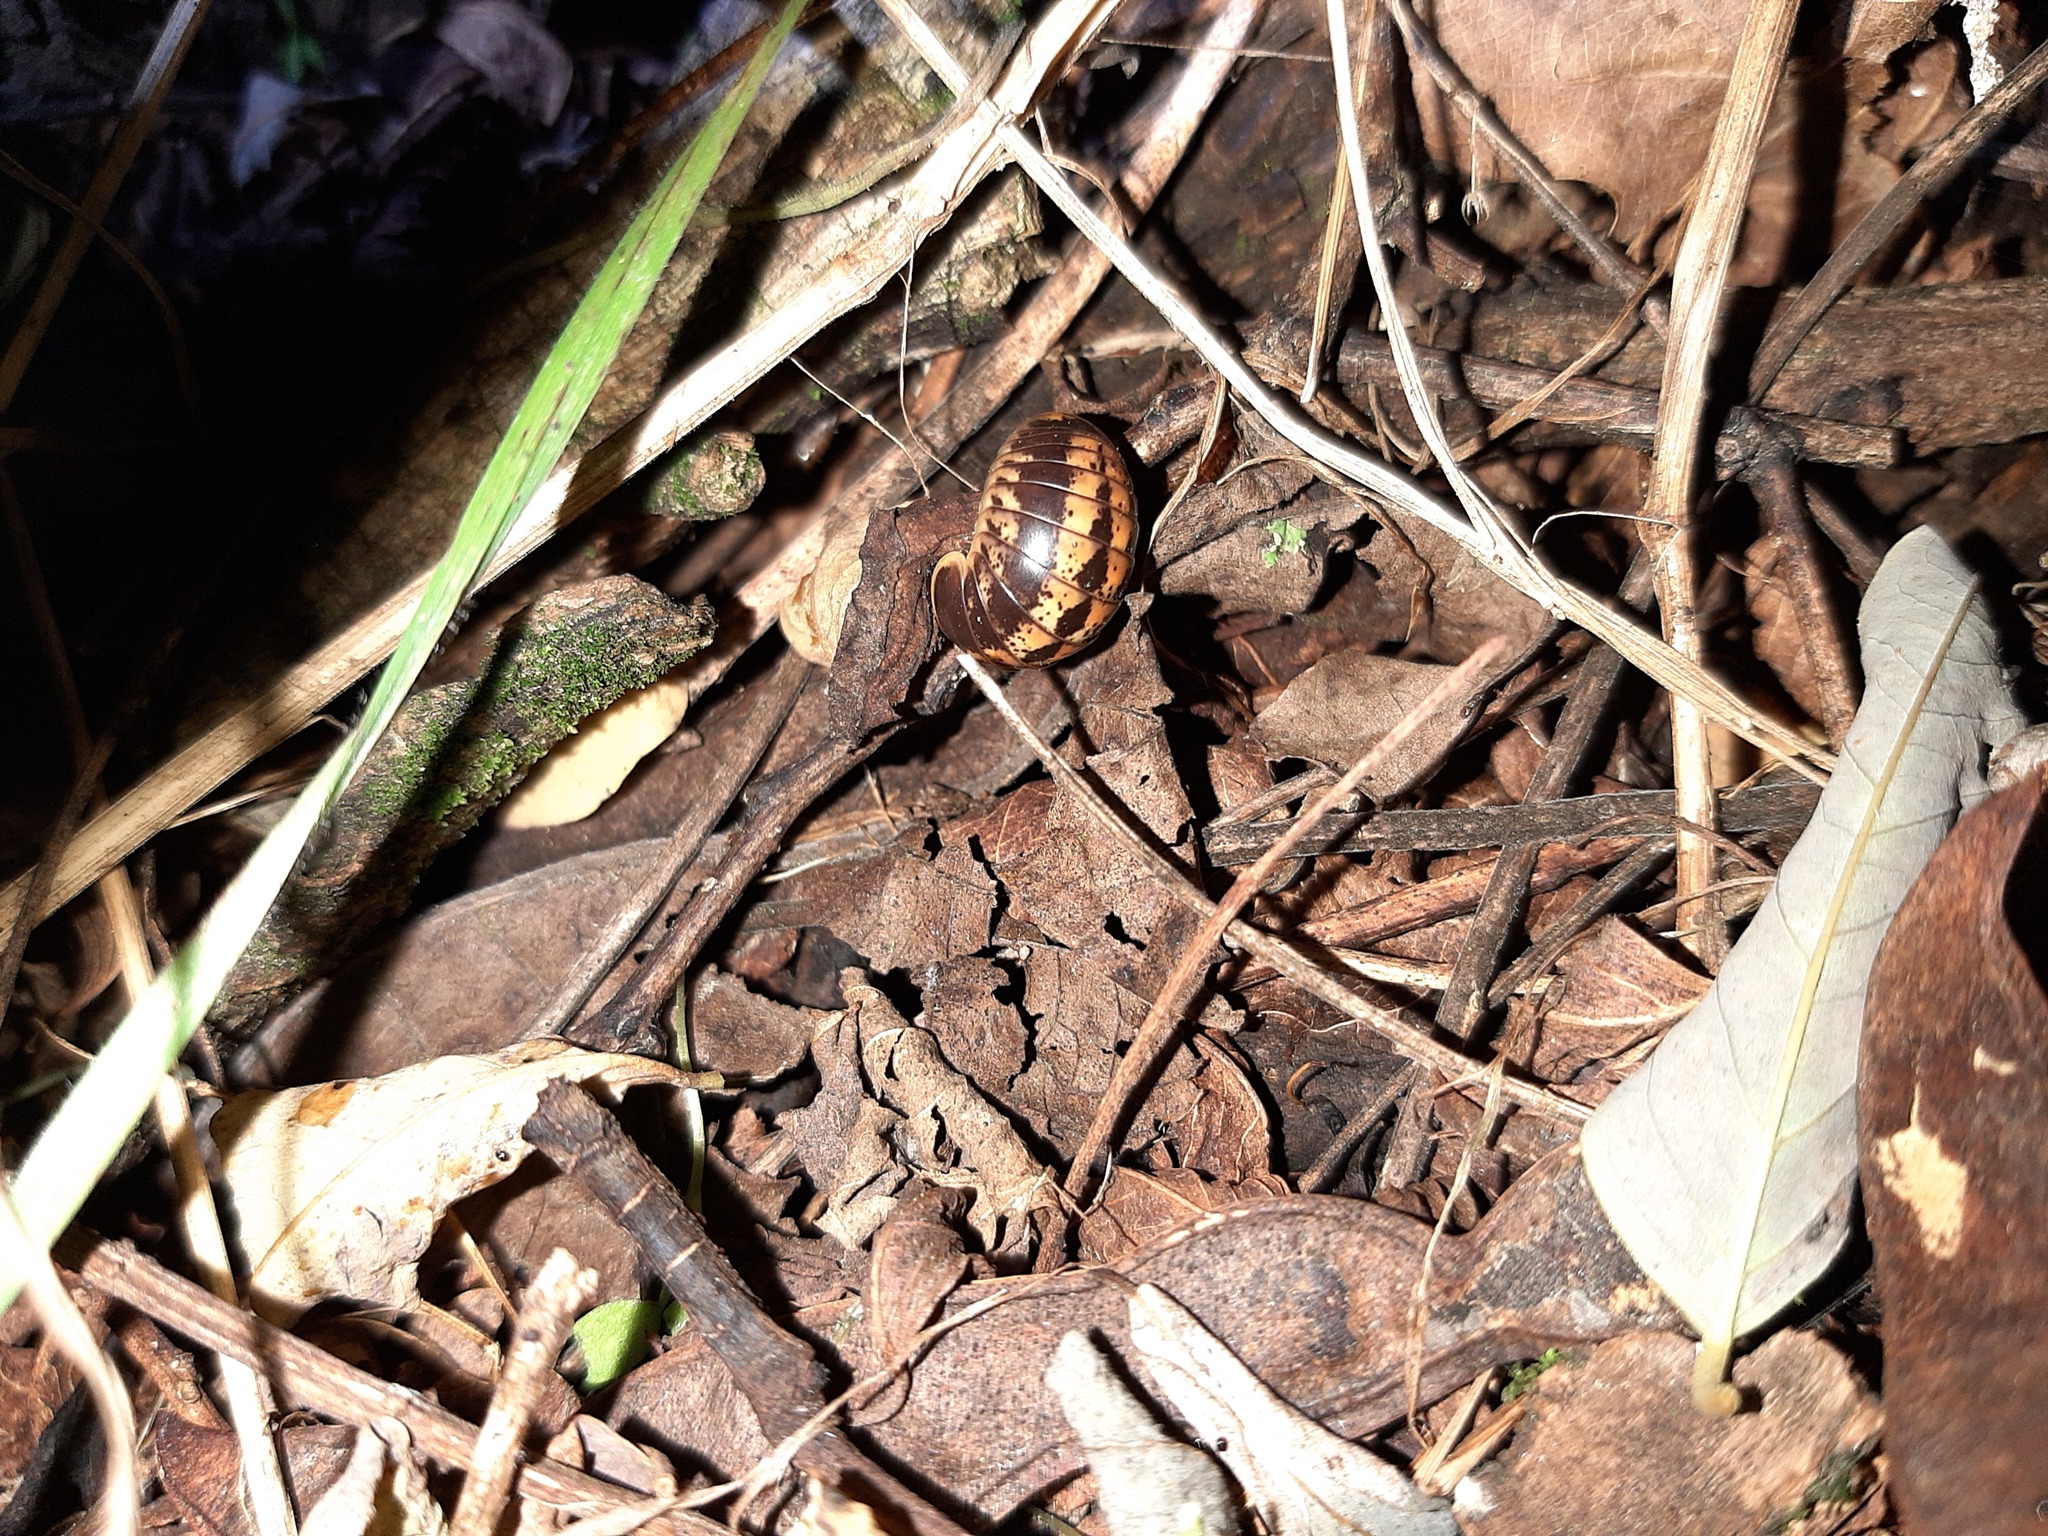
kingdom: Animalia
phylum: Arthropoda
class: Diplopoda
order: Glomerida
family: Glomeridae
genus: Glomeris
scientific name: Glomeris klugii
